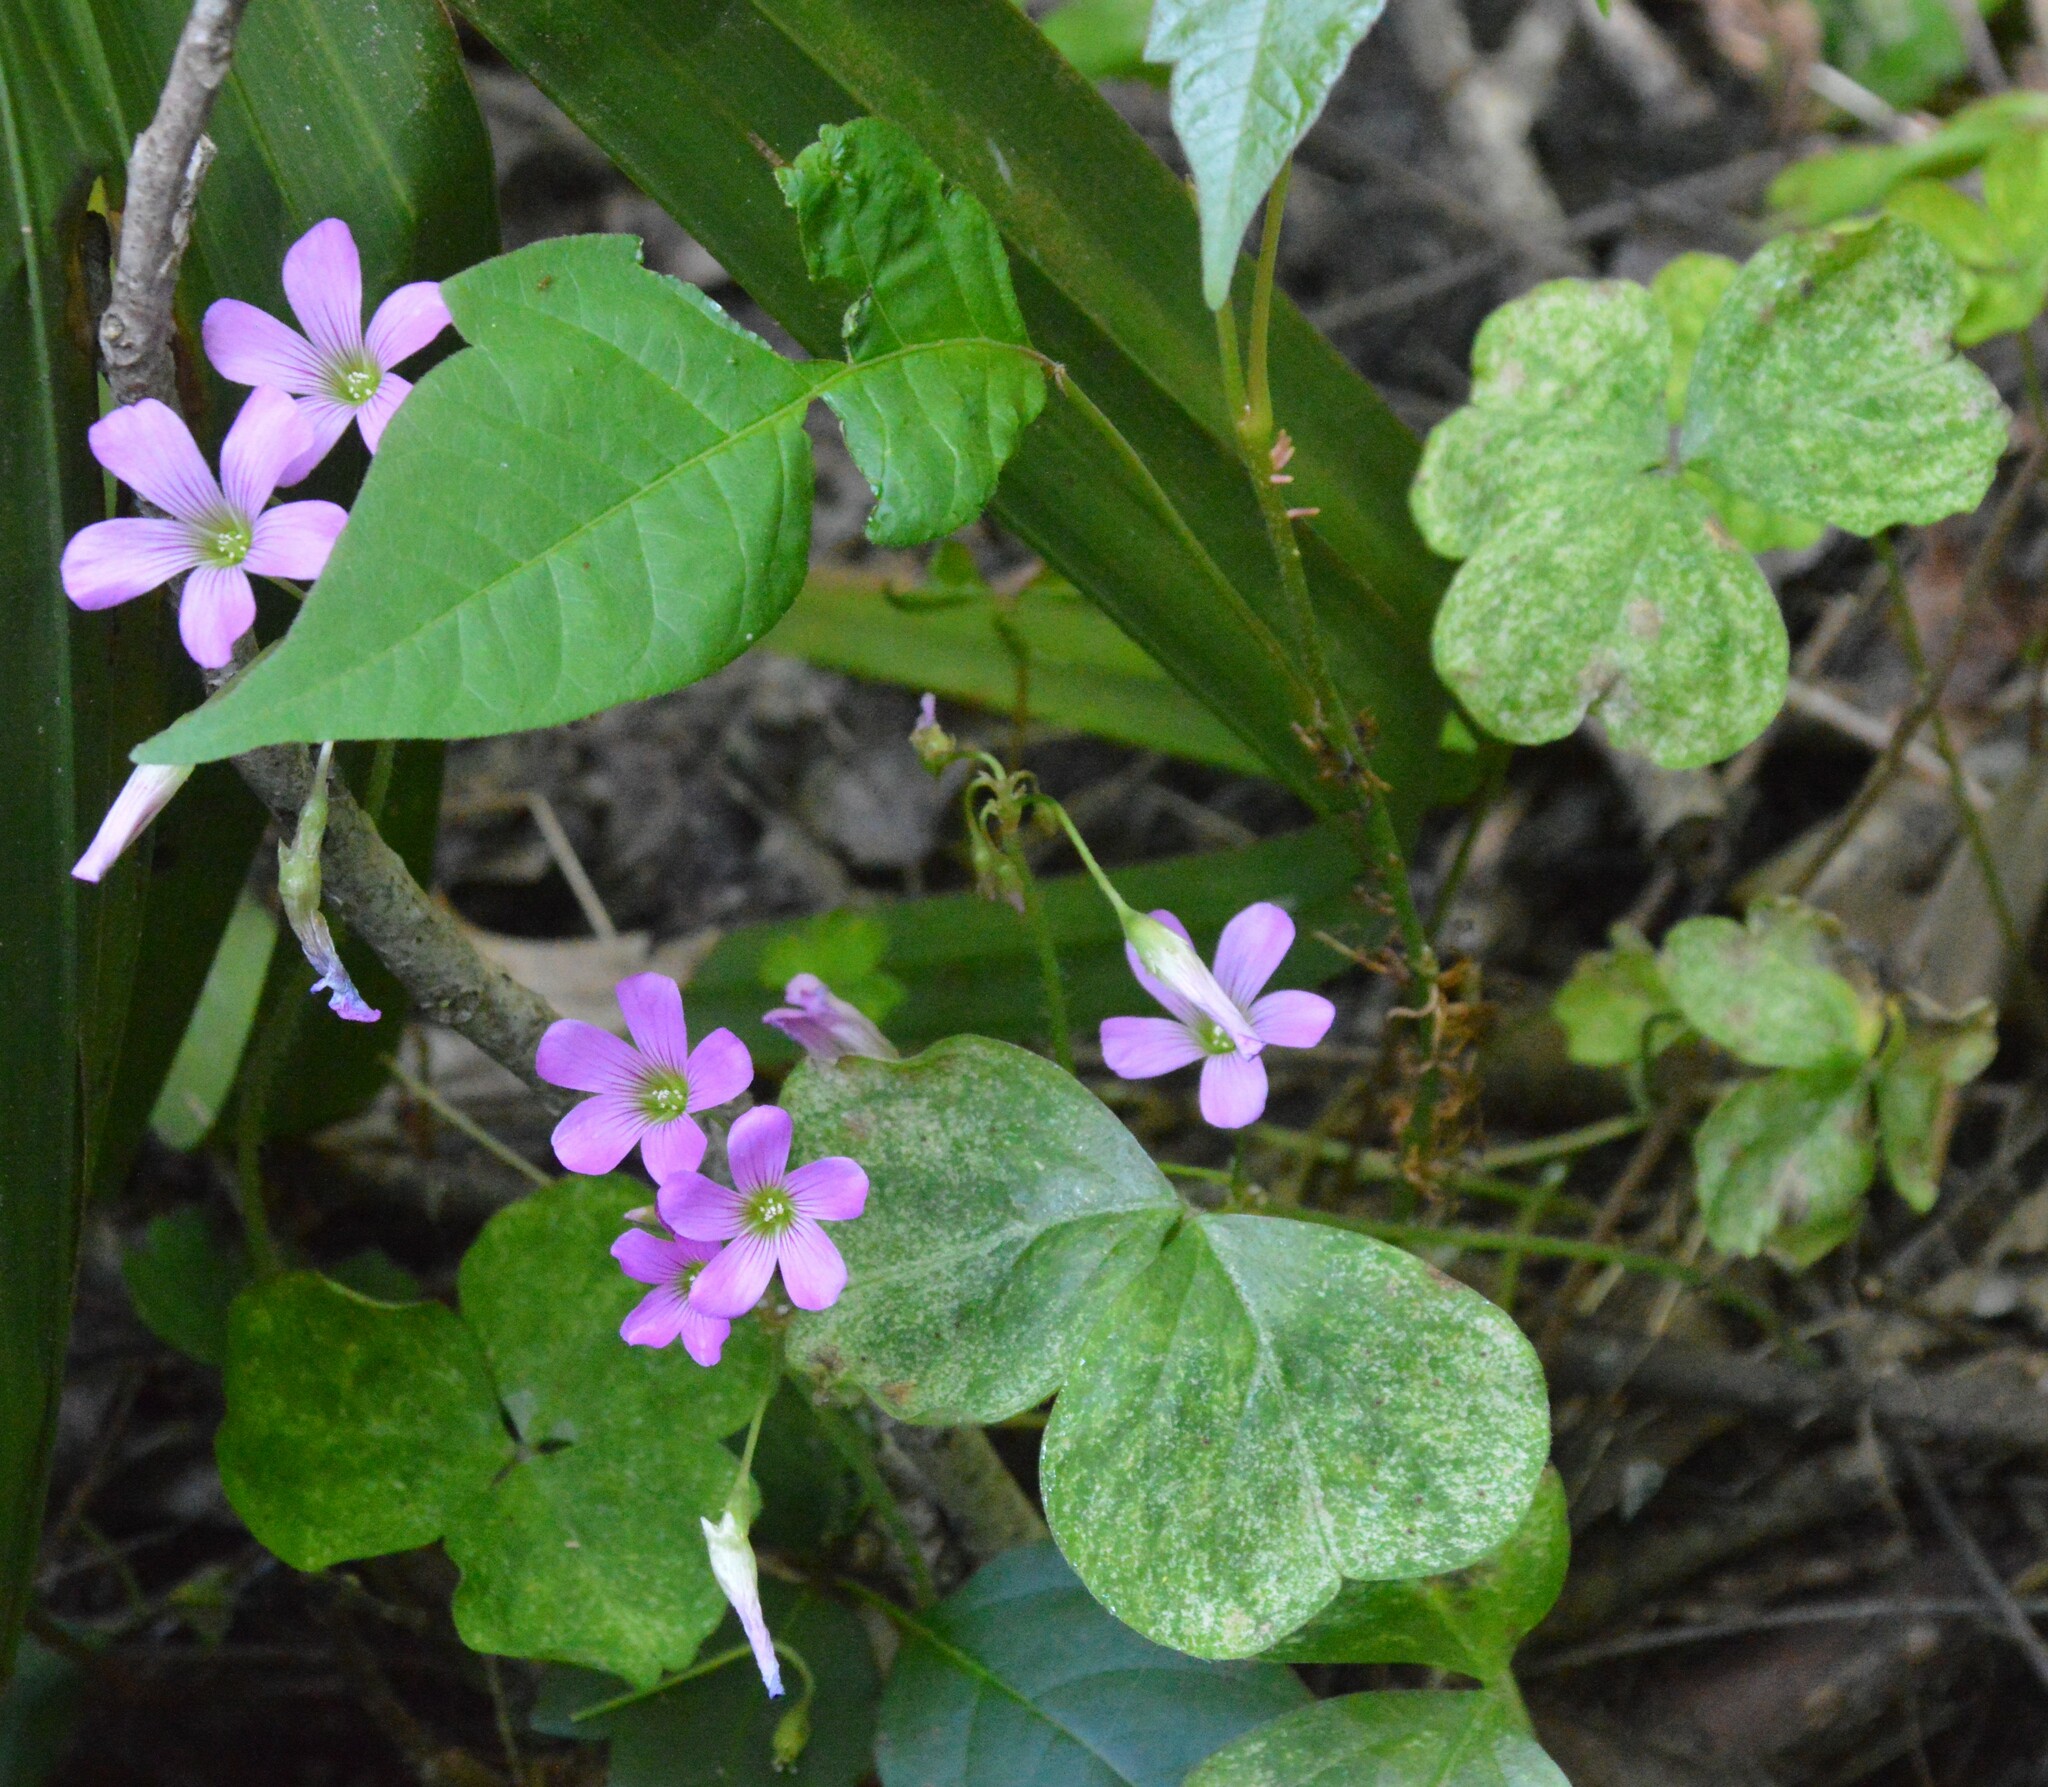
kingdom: Plantae
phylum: Tracheophyta
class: Magnoliopsida
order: Oxalidales
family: Oxalidaceae
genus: Oxalis
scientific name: Oxalis debilis
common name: Large-flowered pink-sorrel
